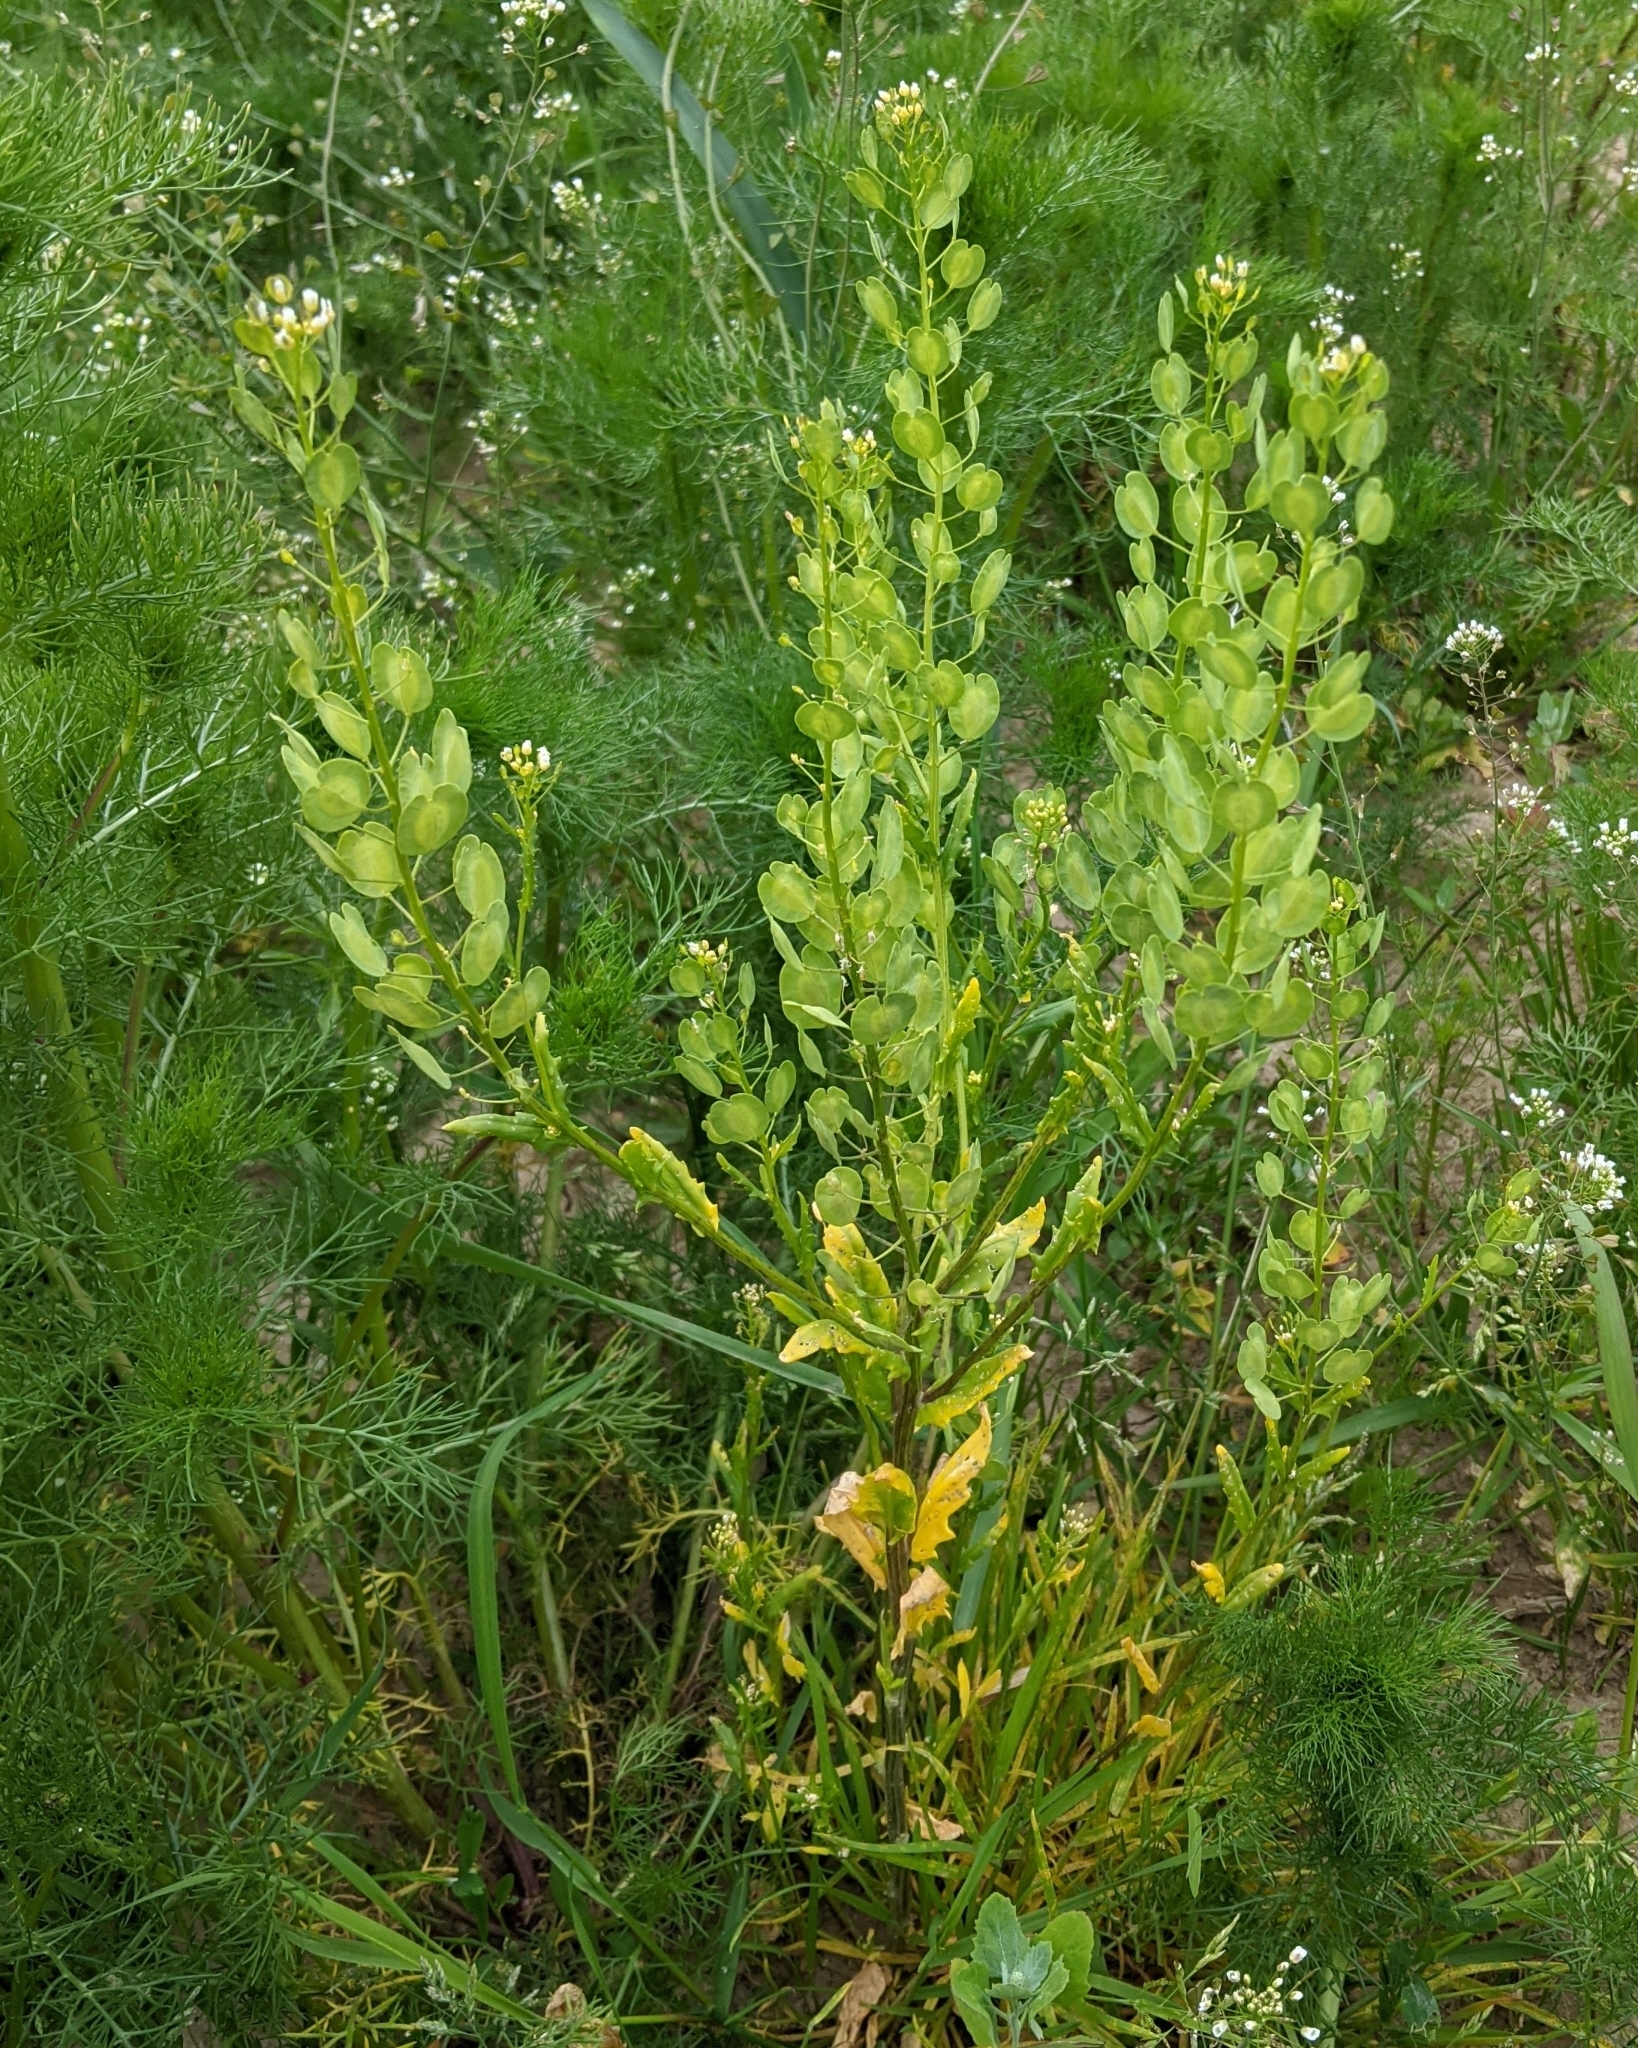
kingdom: Plantae
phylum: Tracheophyta
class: Magnoliopsida
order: Brassicales
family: Brassicaceae
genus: Thlaspi
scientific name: Thlaspi arvense
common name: Field pennycress
